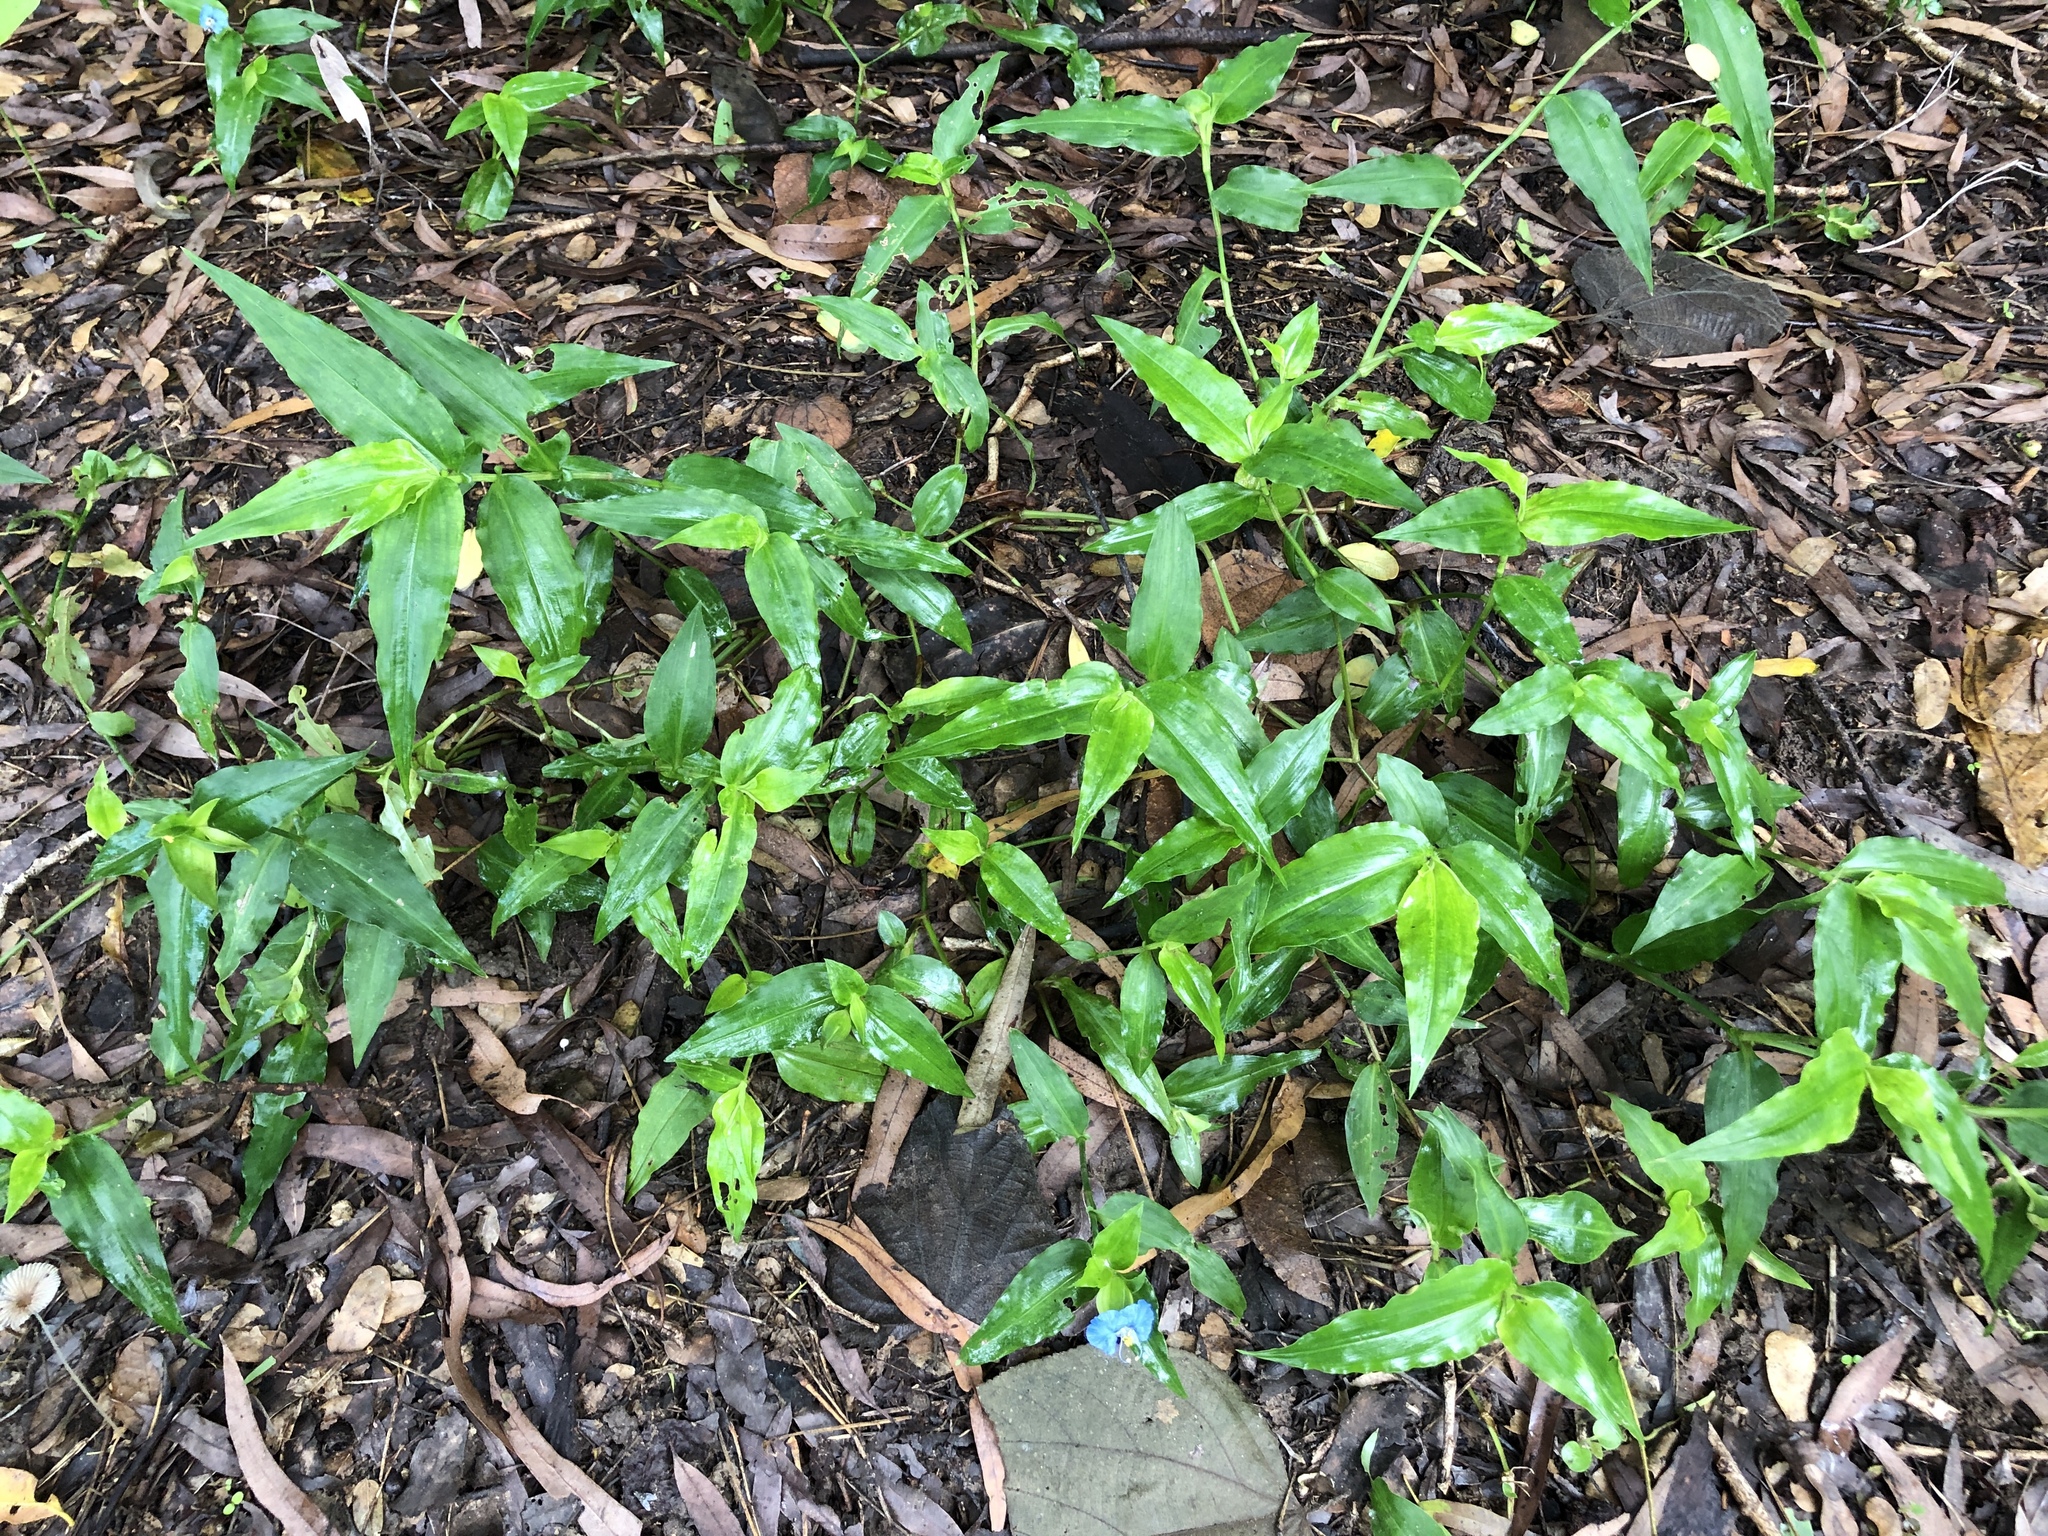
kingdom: Plantae
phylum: Tracheophyta
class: Liliopsida
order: Commelinales
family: Commelinaceae
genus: Commelina
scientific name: Commelina ensifolia
